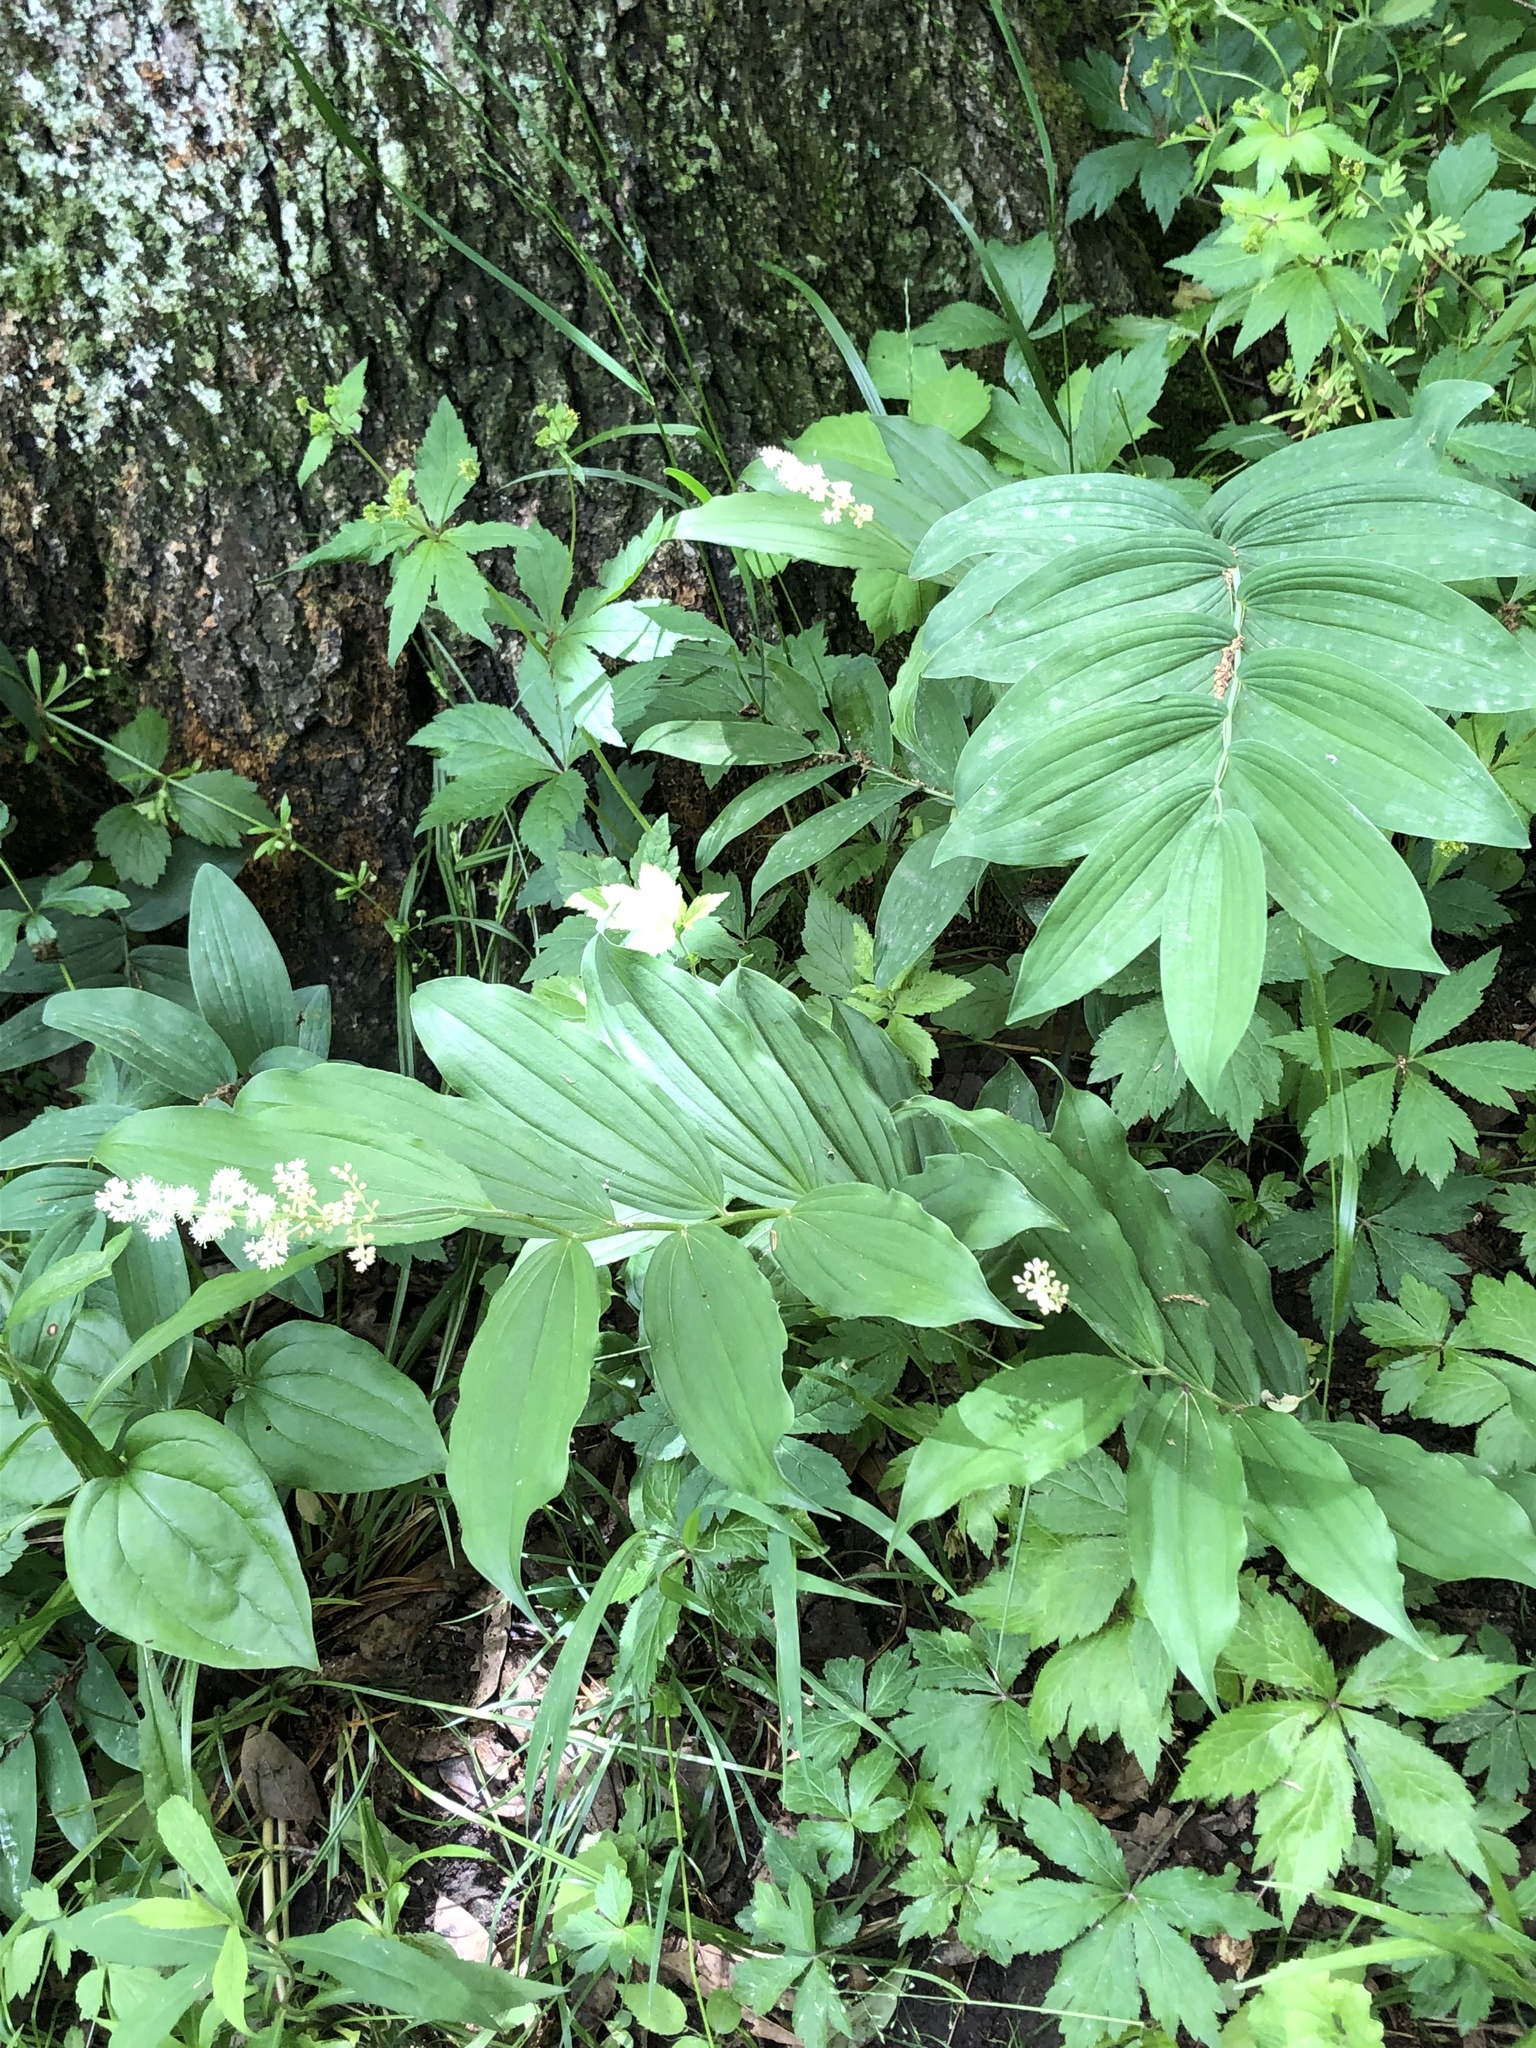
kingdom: Plantae
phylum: Tracheophyta
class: Liliopsida
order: Asparagales
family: Asparagaceae
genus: Maianthemum
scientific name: Maianthemum racemosum
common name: False spikenard
